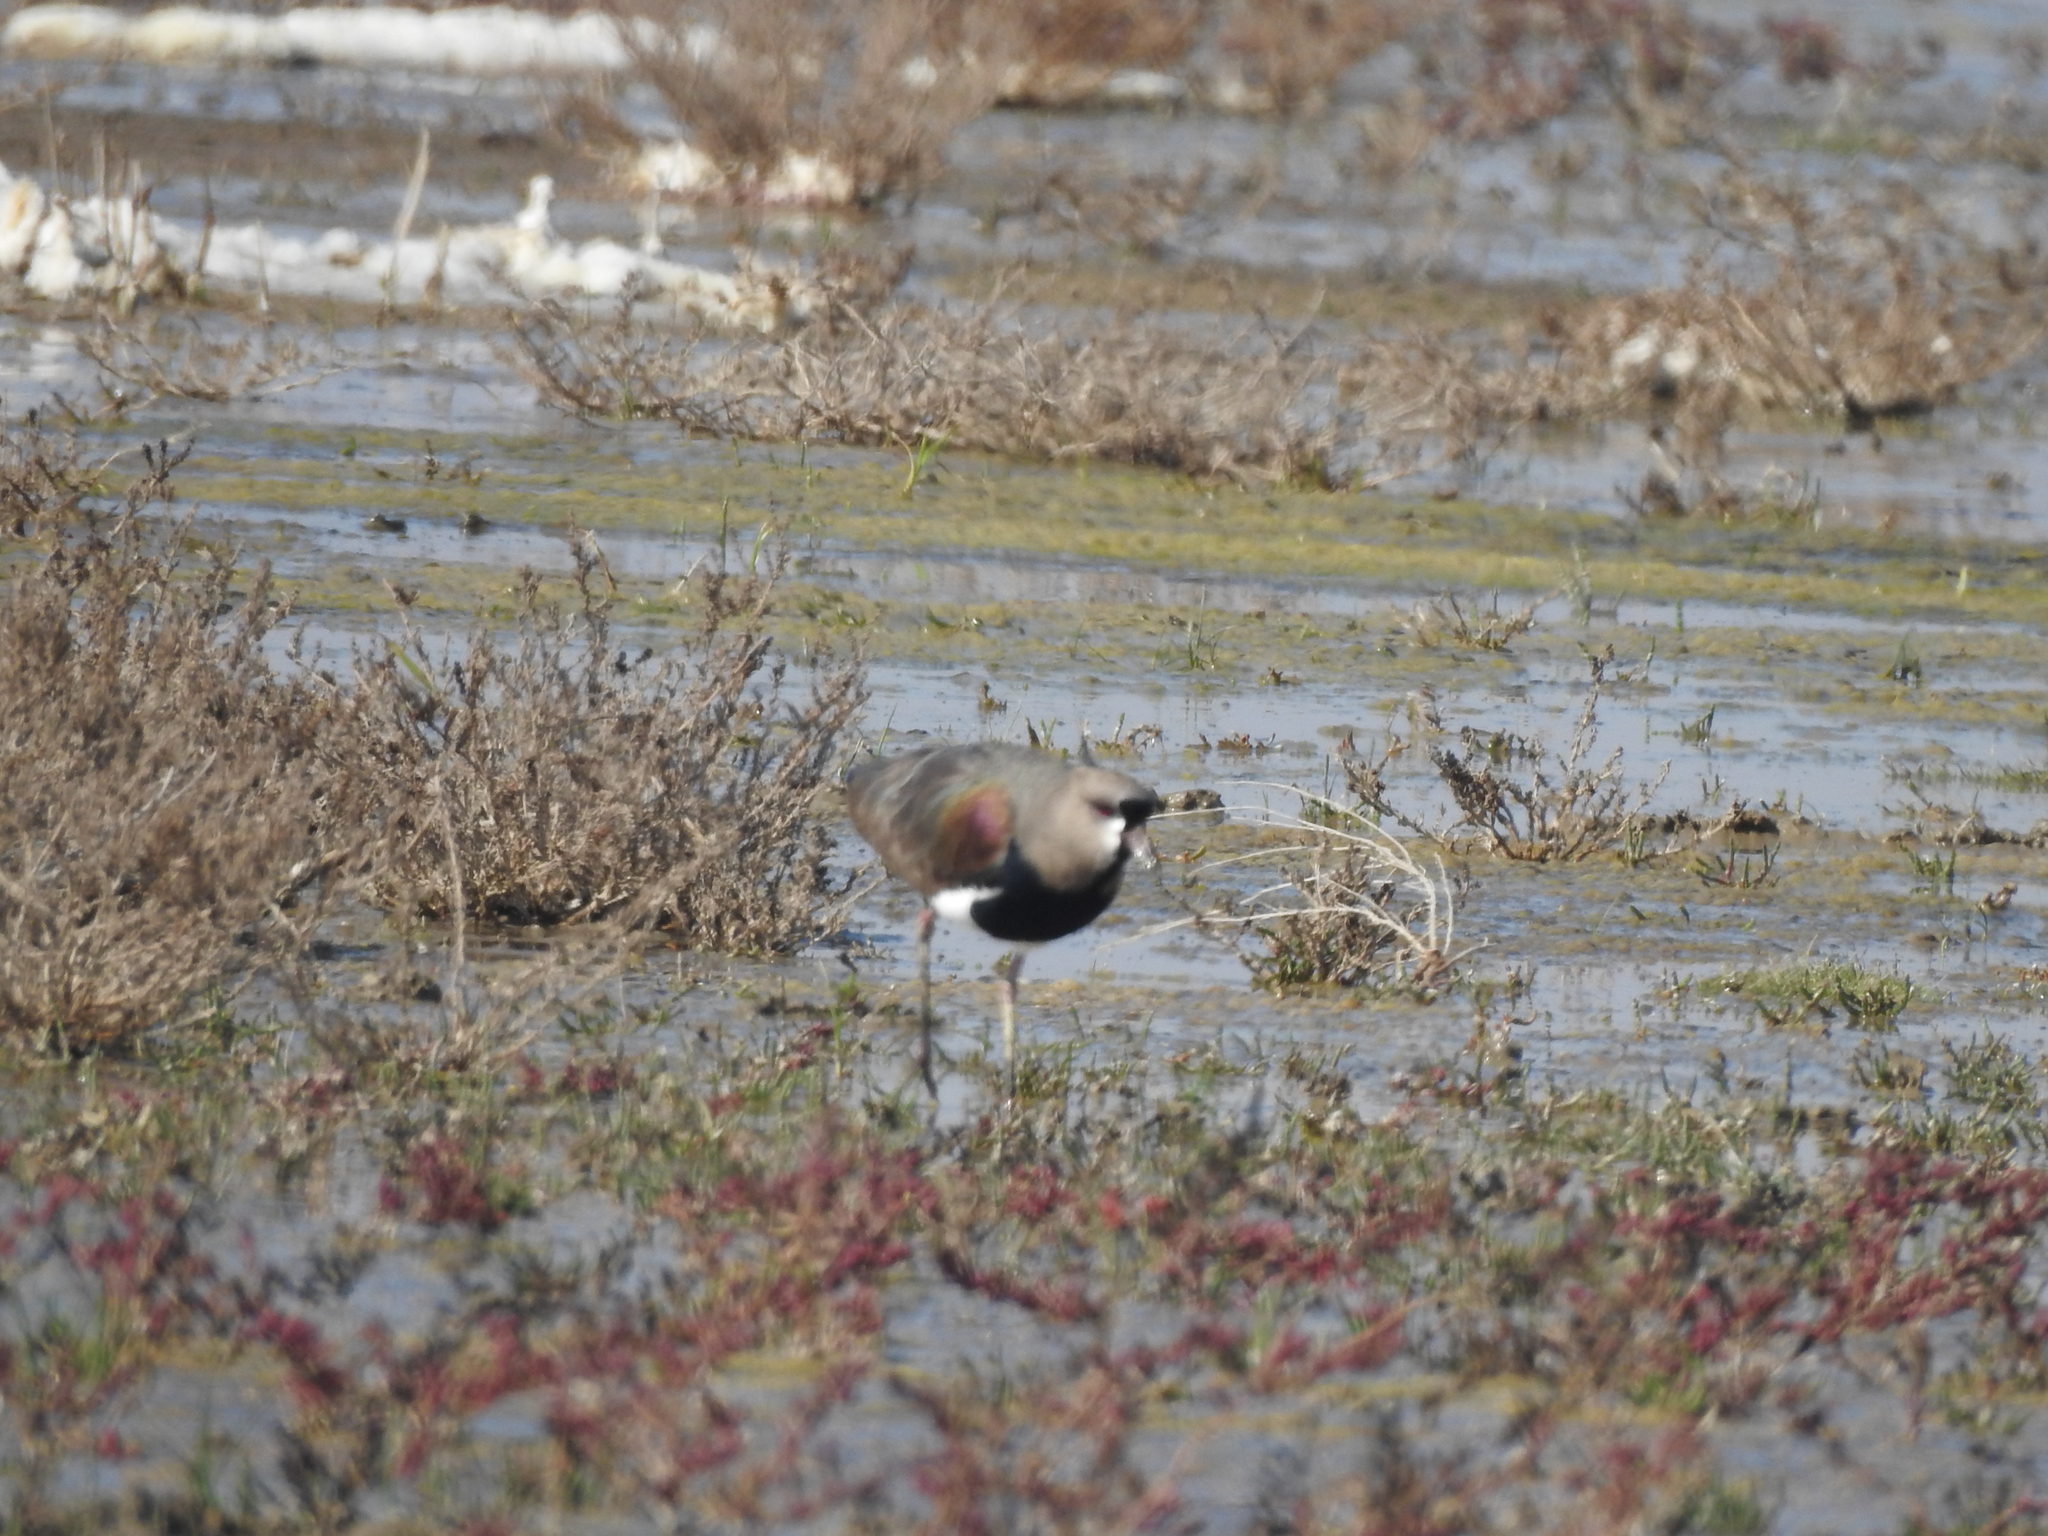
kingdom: Animalia
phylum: Chordata
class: Aves
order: Charadriiformes
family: Charadriidae
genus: Vanellus
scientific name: Vanellus chilensis
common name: Southern lapwing
